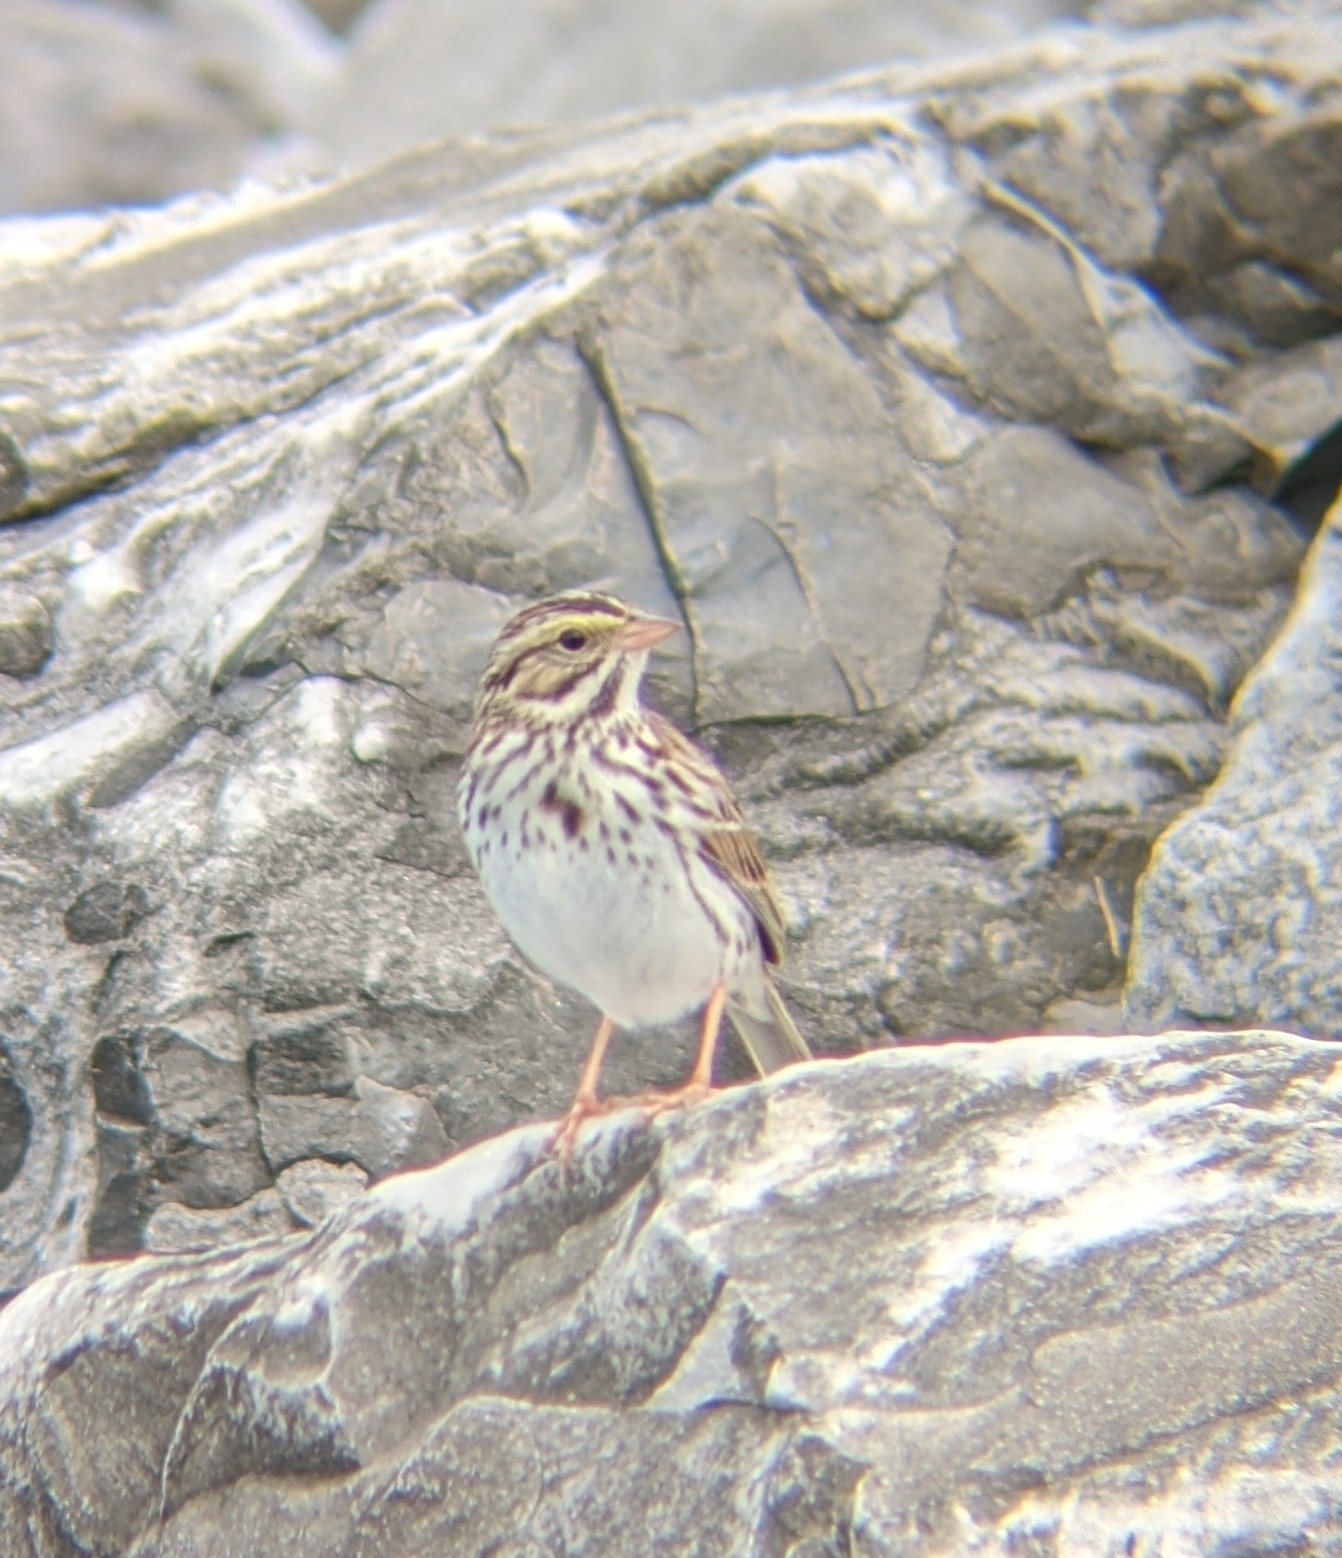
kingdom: Animalia
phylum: Chordata
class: Aves
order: Passeriformes
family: Passerellidae
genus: Passerculus
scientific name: Passerculus sandwichensis
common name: Savannah sparrow
